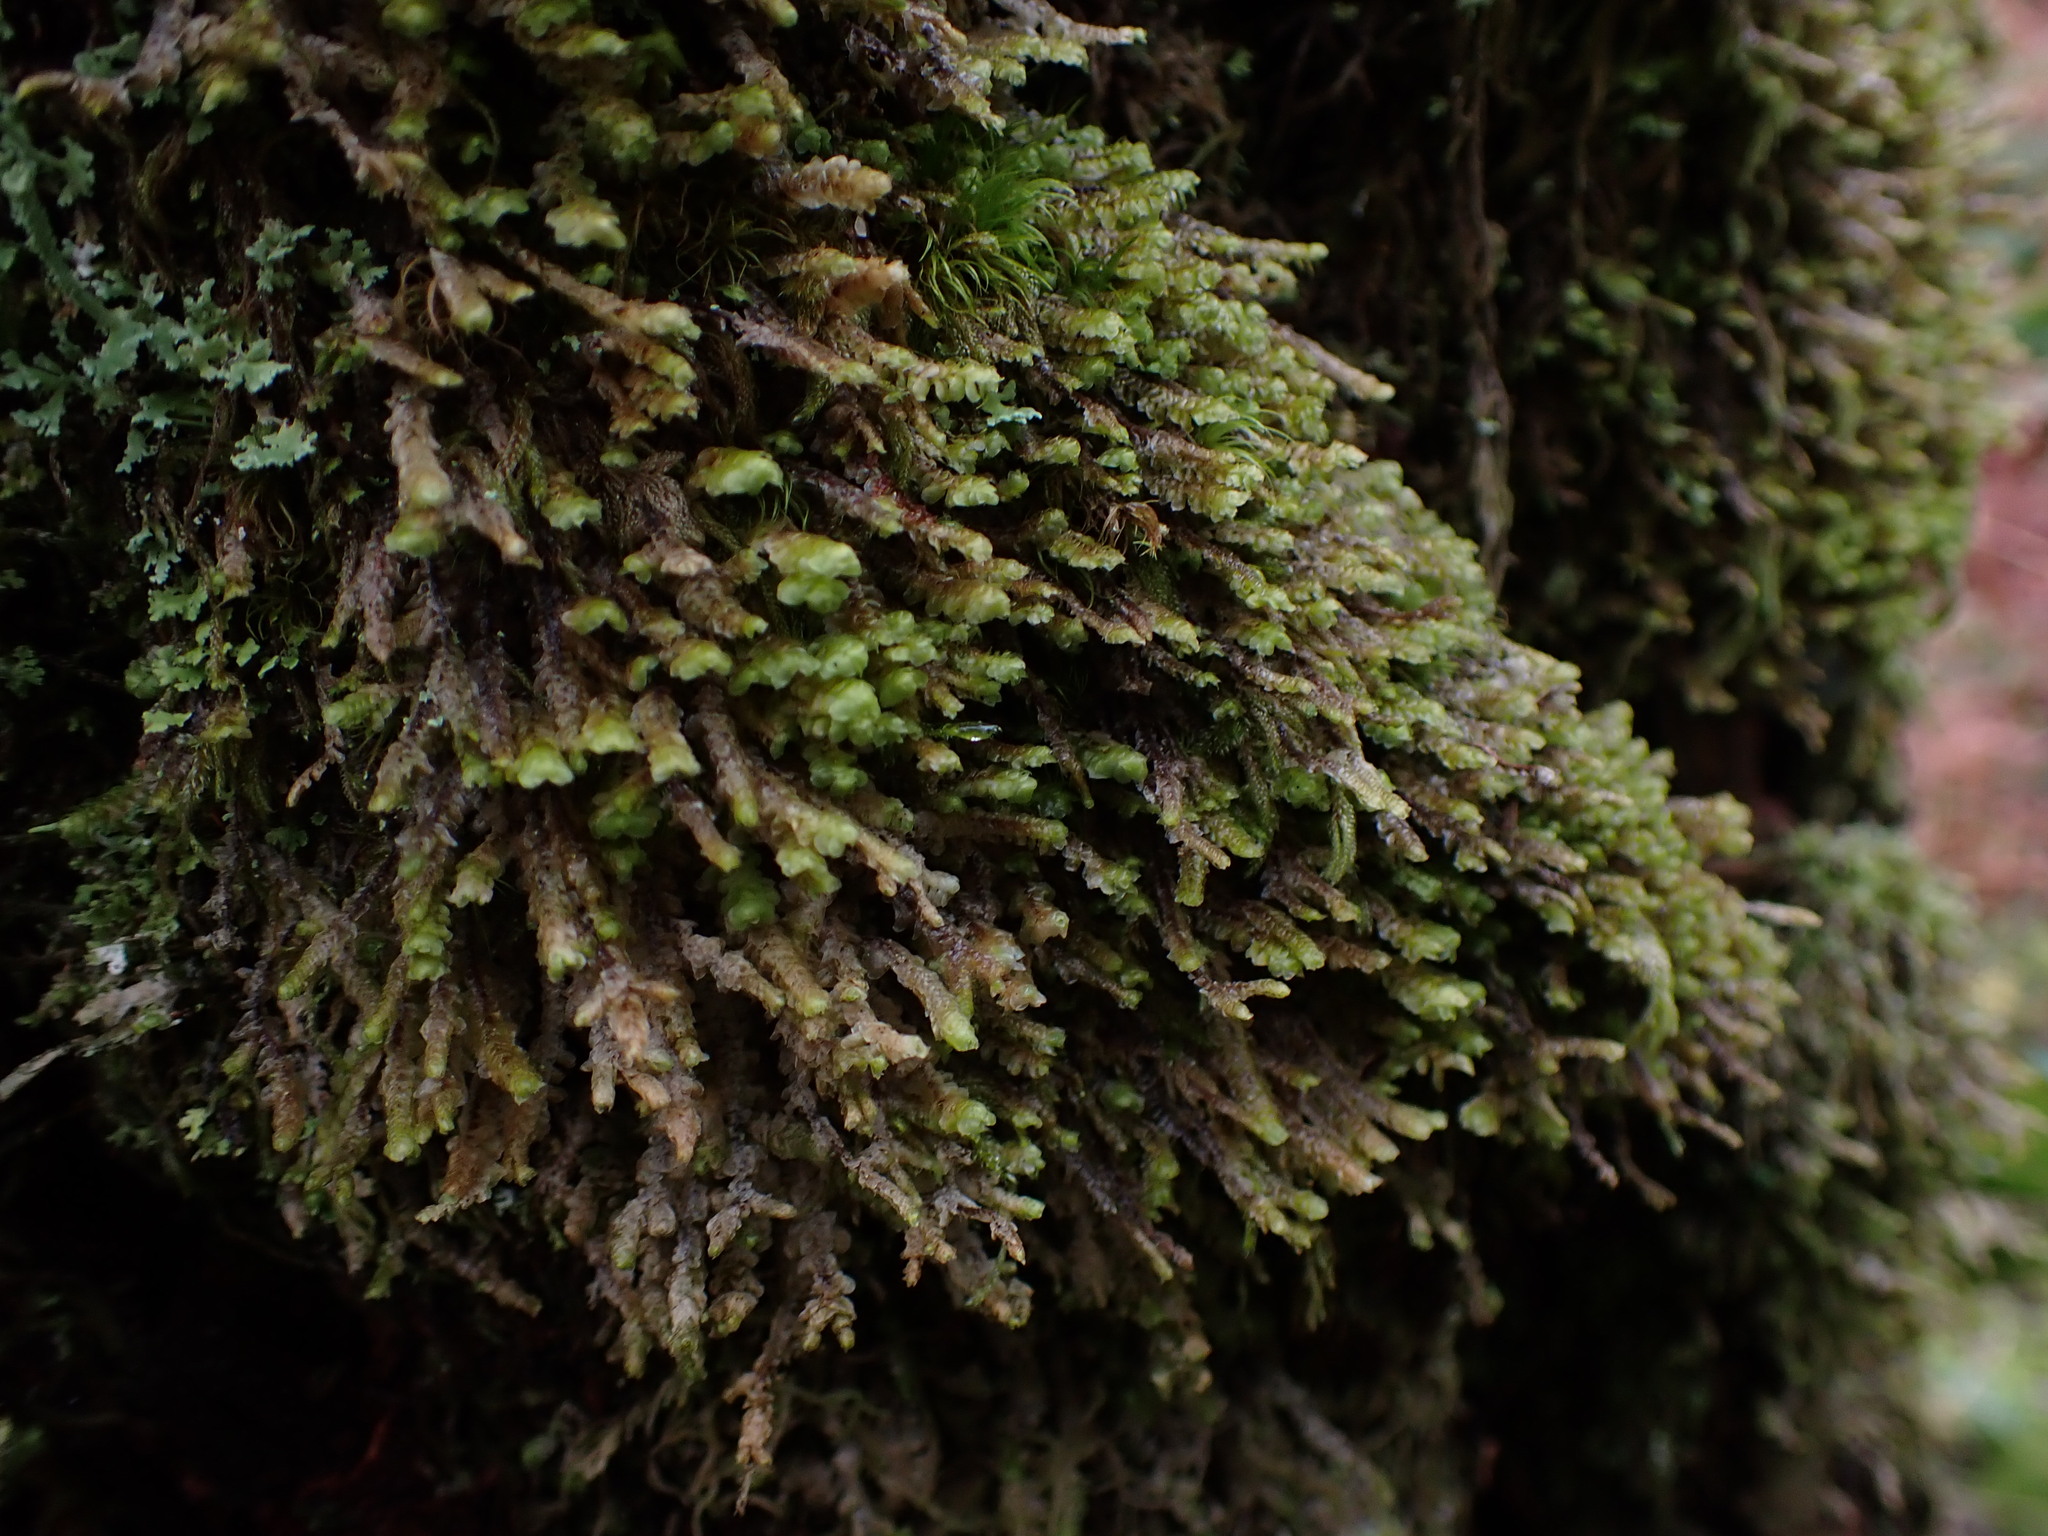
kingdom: Plantae
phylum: Marchantiophyta
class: Jungermanniopsida
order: Jungermanniales
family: Scapaniaceae
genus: Scapania
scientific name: Scapania bolanderi
